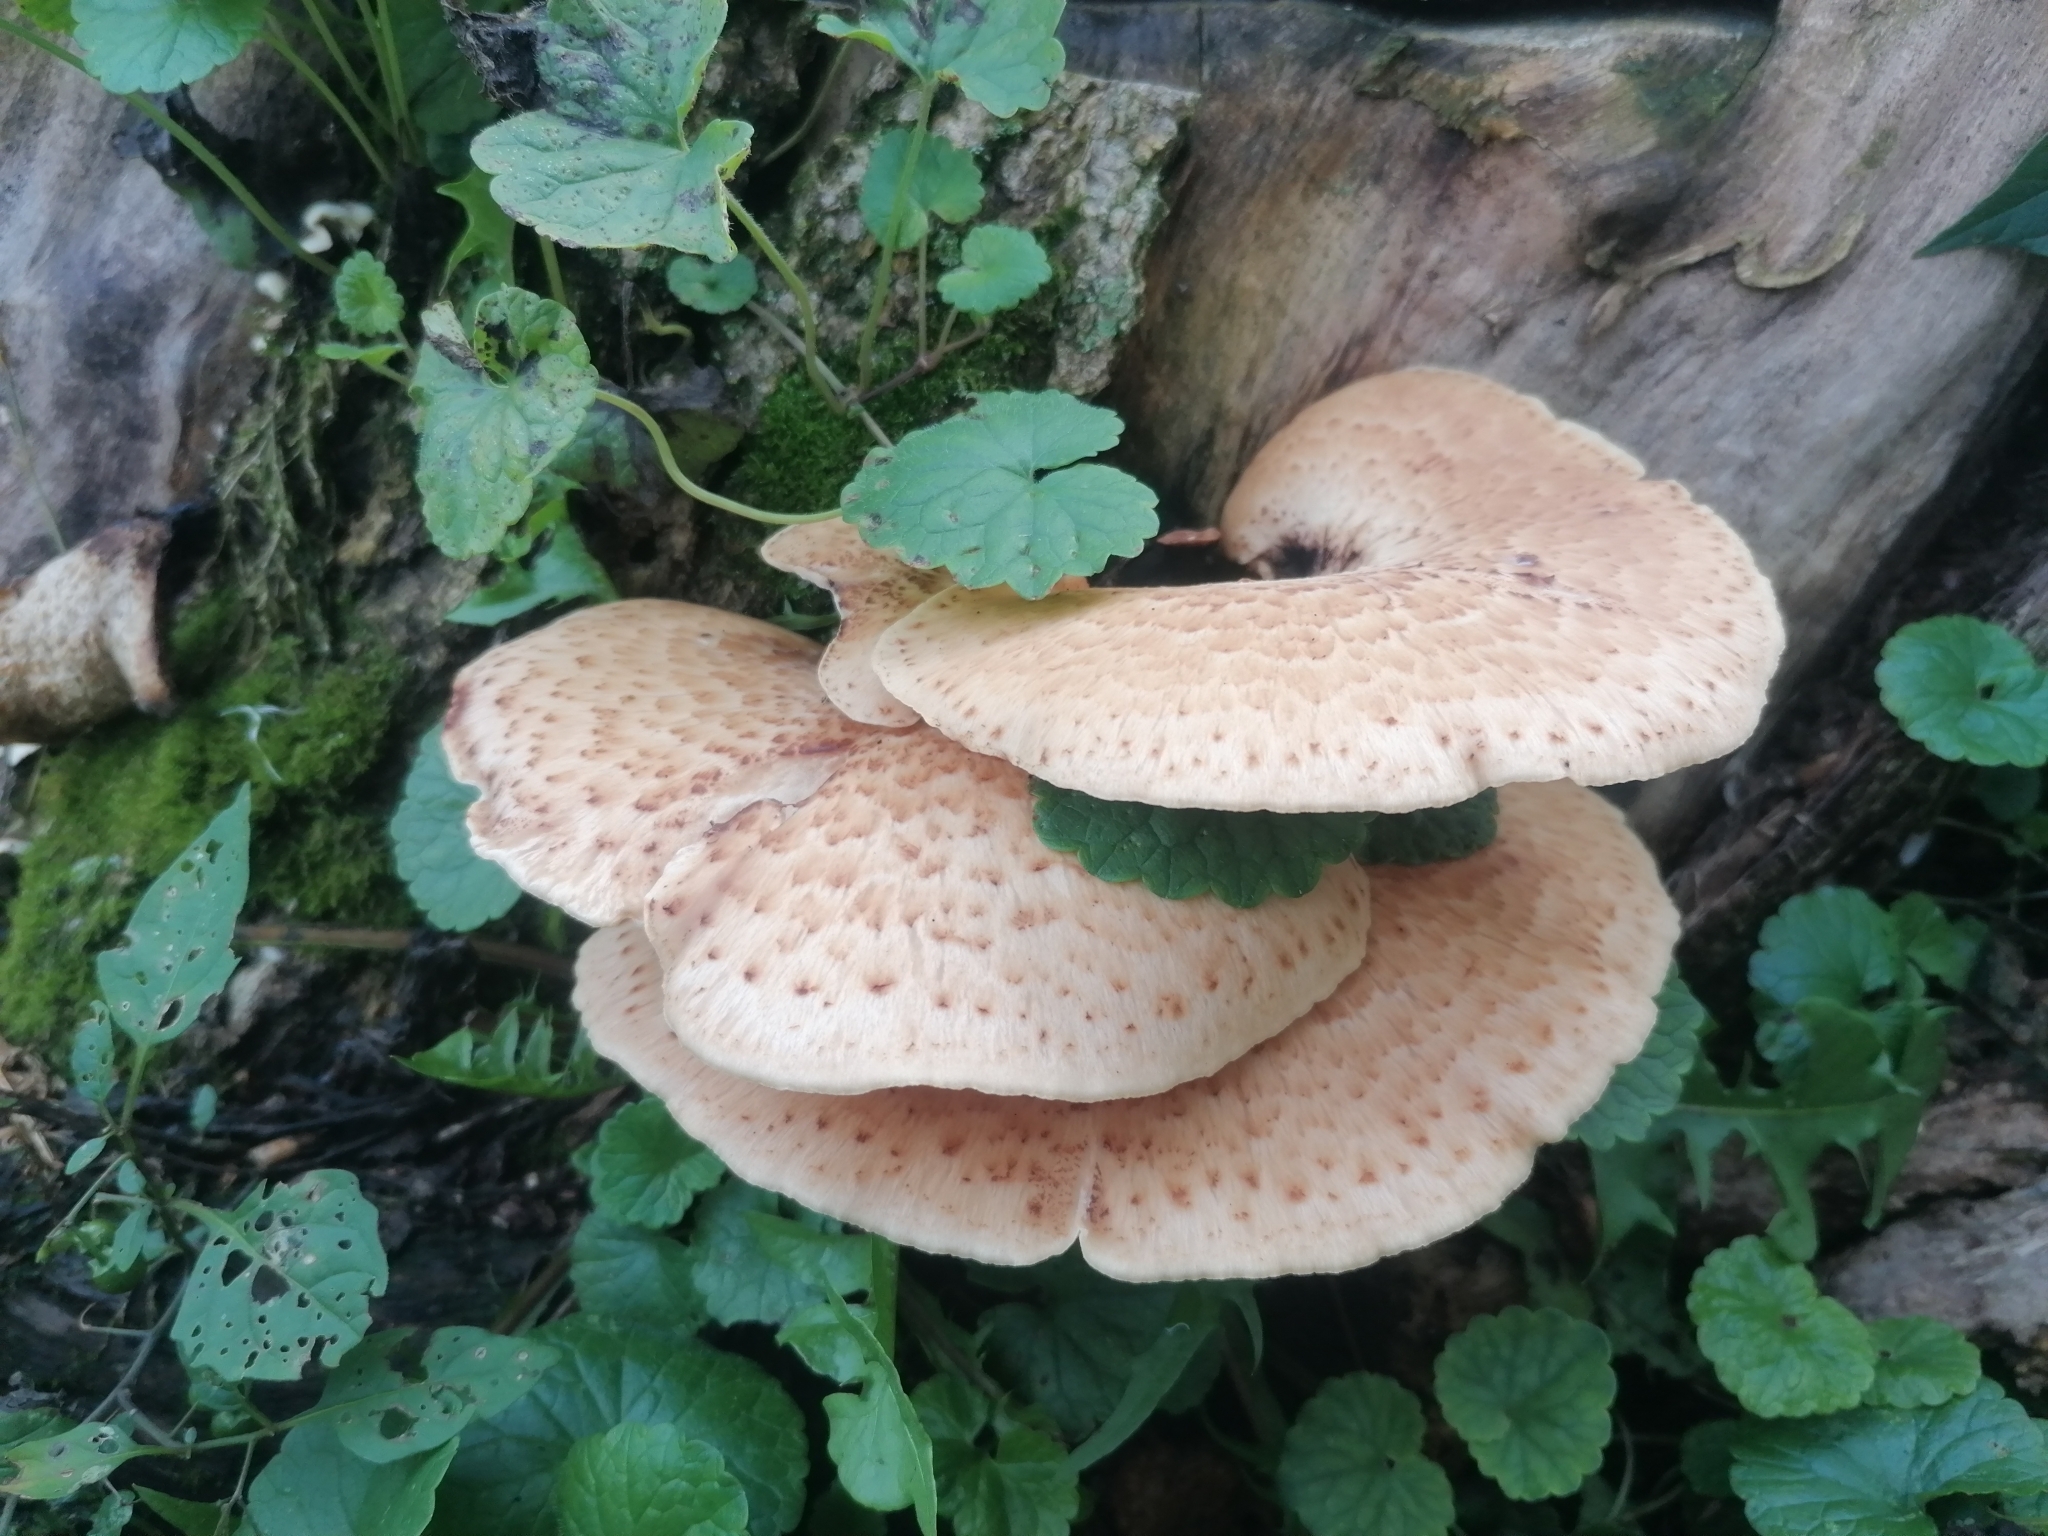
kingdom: Fungi
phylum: Basidiomycota
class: Agaricomycetes
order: Polyporales
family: Polyporaceae
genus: Cerioporus
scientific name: Cerioporus squamosus
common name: Dryad's saddle
